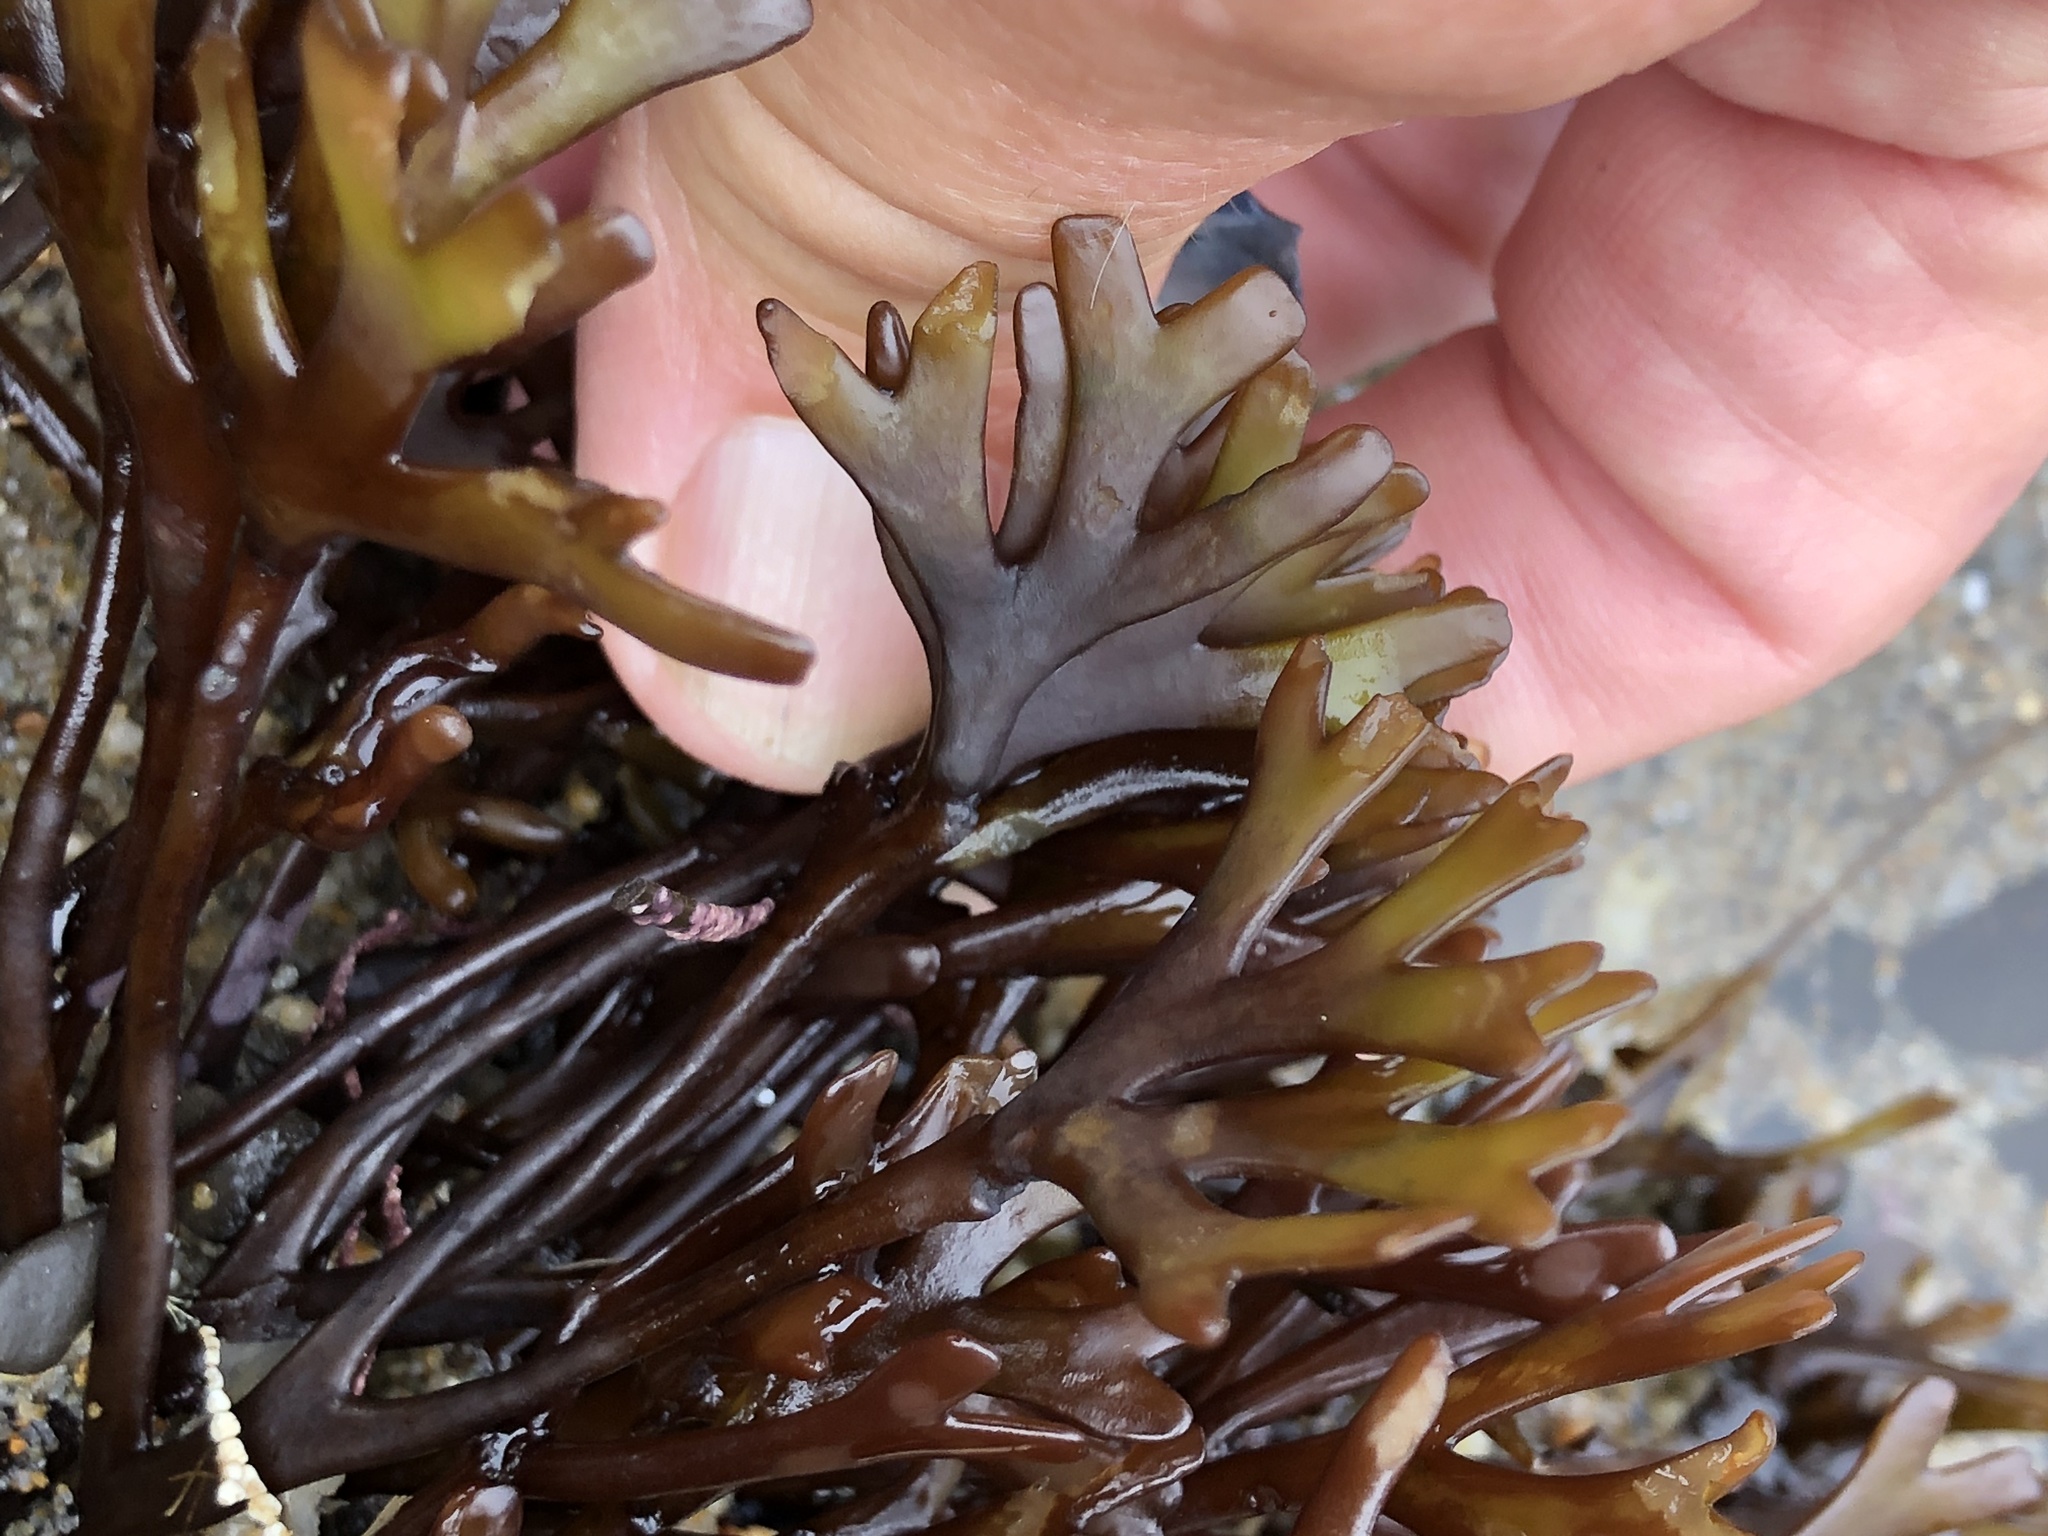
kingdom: Plantae
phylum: Rhodophyta
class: Florideophyceae
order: Gigartinales
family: Phyllophoraceae
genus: Ahnfeltiopsis
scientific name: Ahnfeltiopsis linearis
